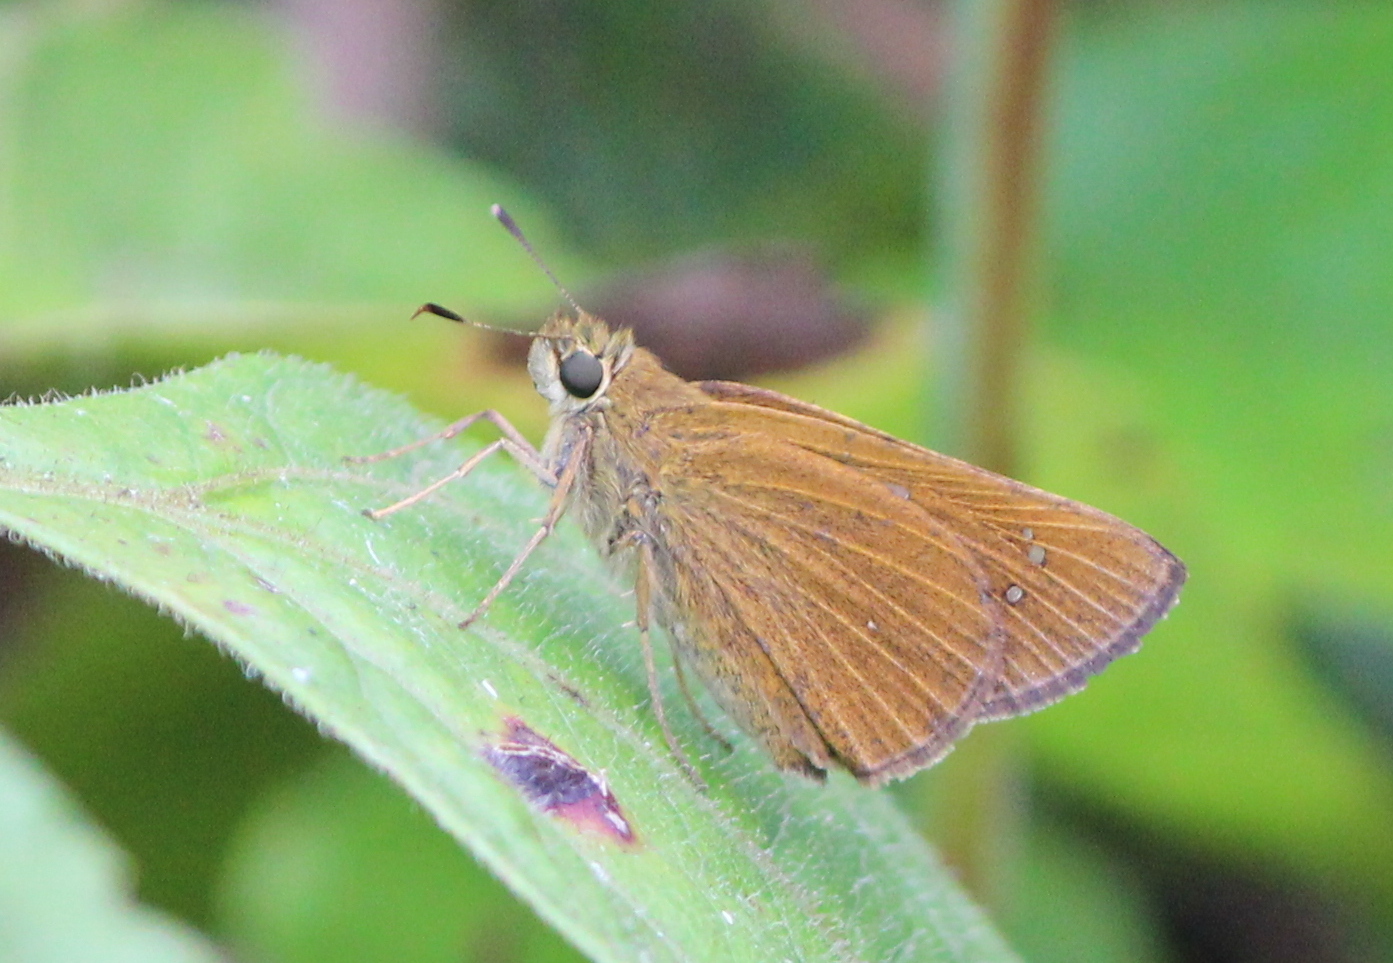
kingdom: Animalia
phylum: Arthropoda
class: Insecta
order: Lepidoptera
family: Hesperiidae
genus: Polytremis
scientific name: Polytremis lubricans
